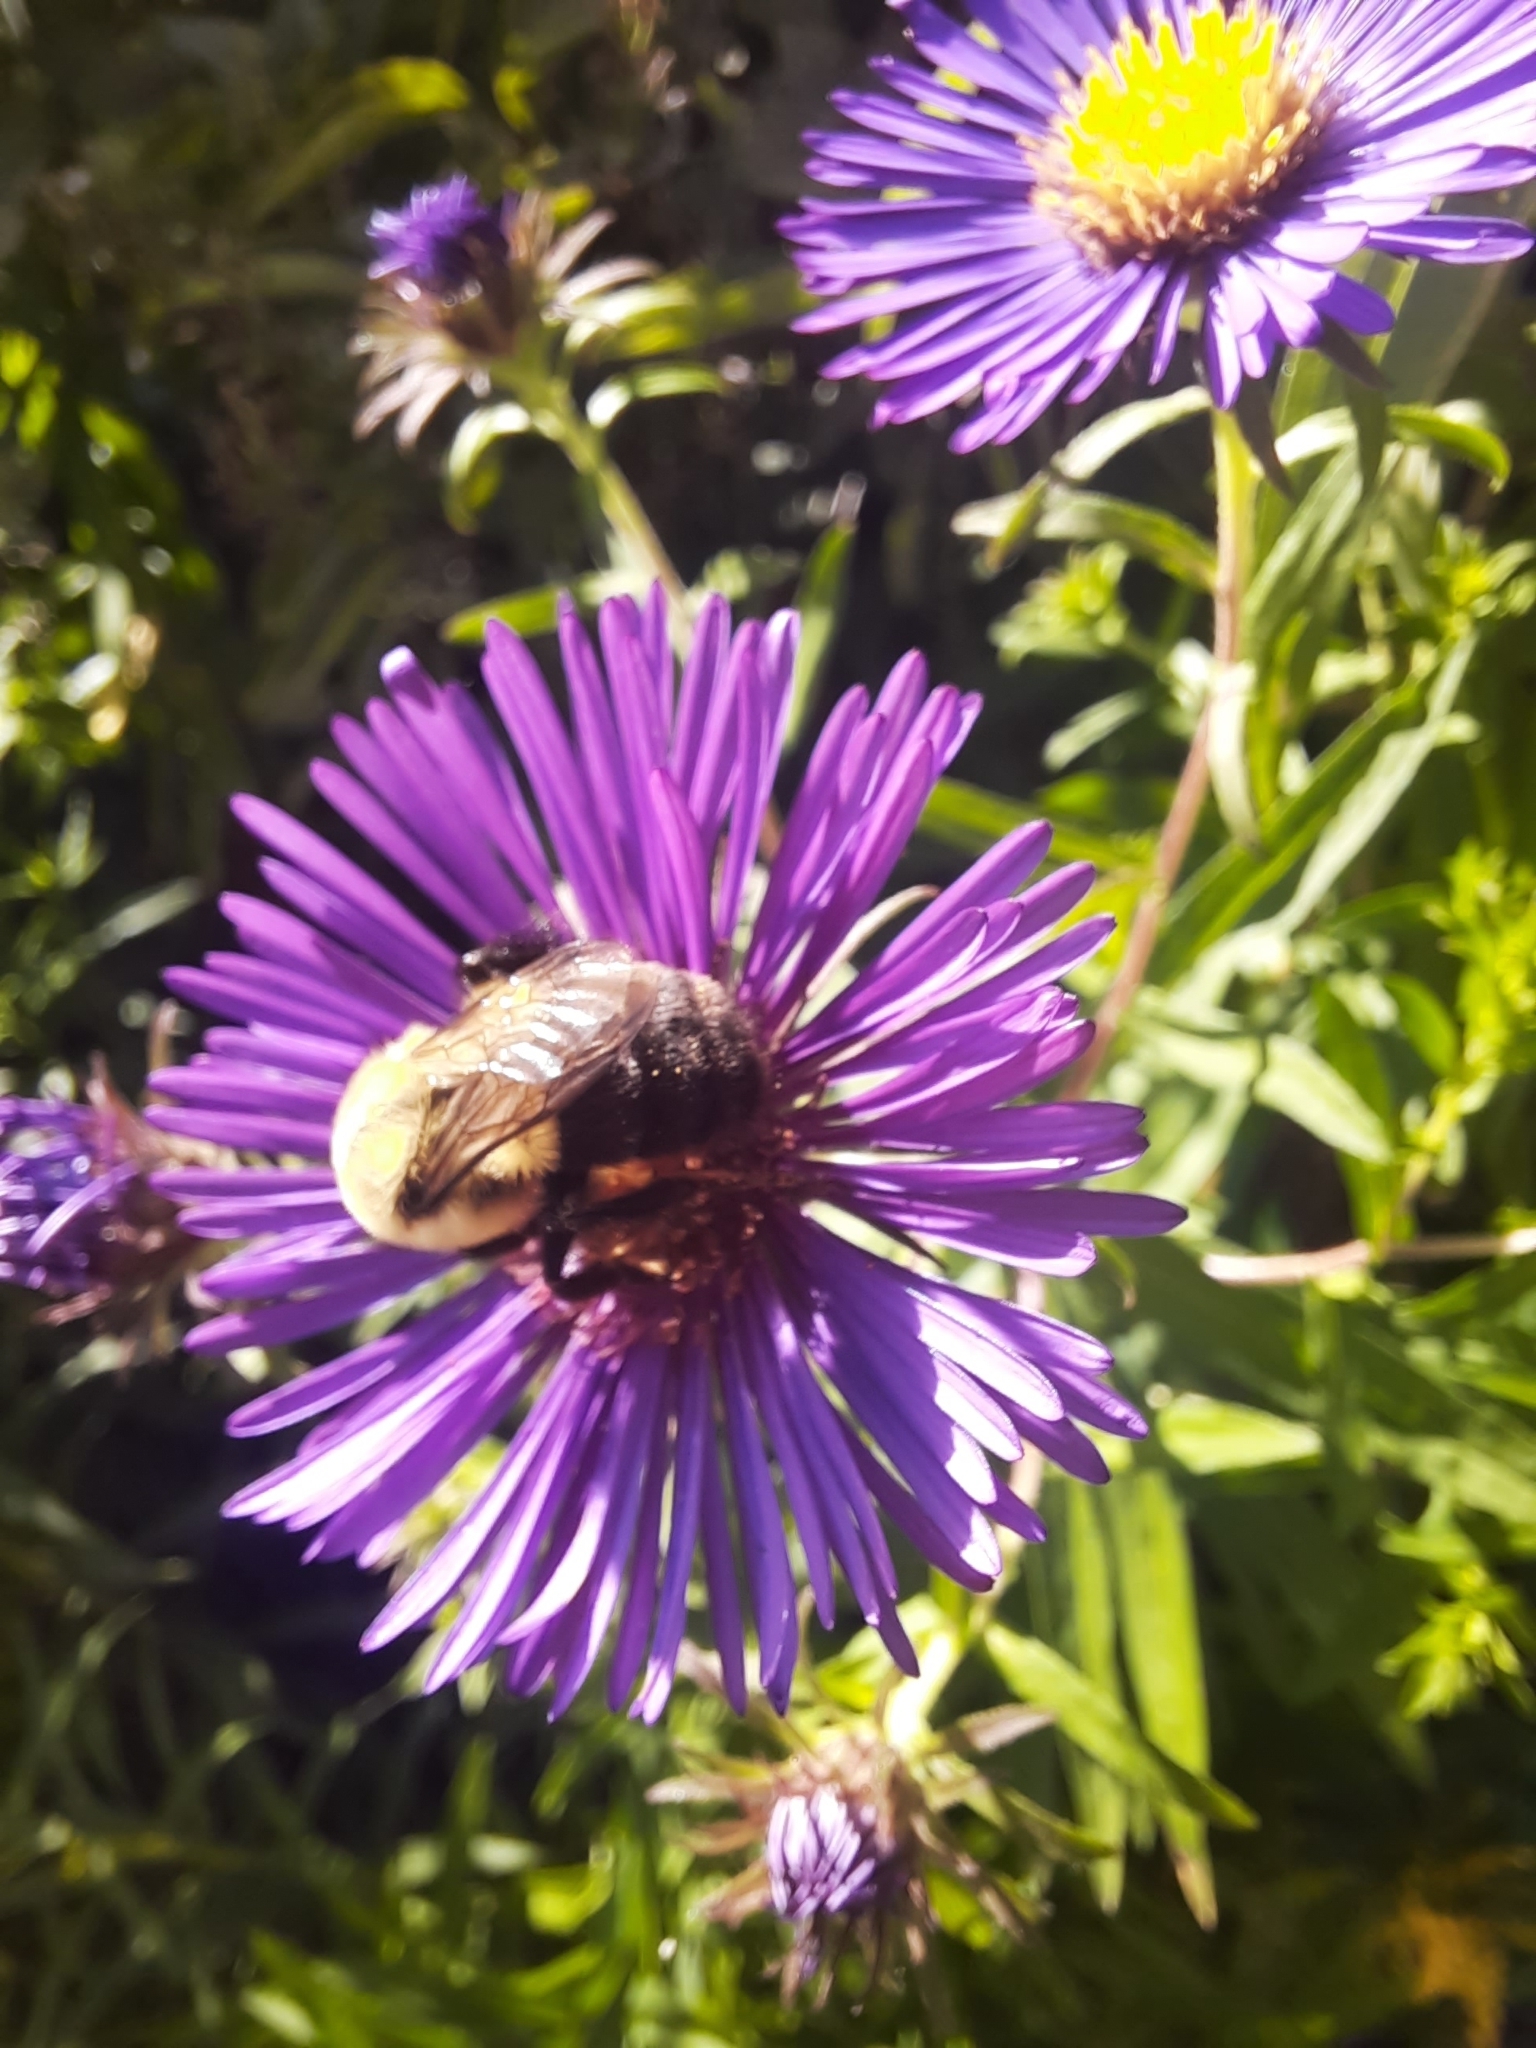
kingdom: Animalia
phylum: Arthropoda
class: Insecta
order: Hymenoptera
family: Apidae
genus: Bombus
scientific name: Bombus impatiens
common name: Common eastern bumble bee
